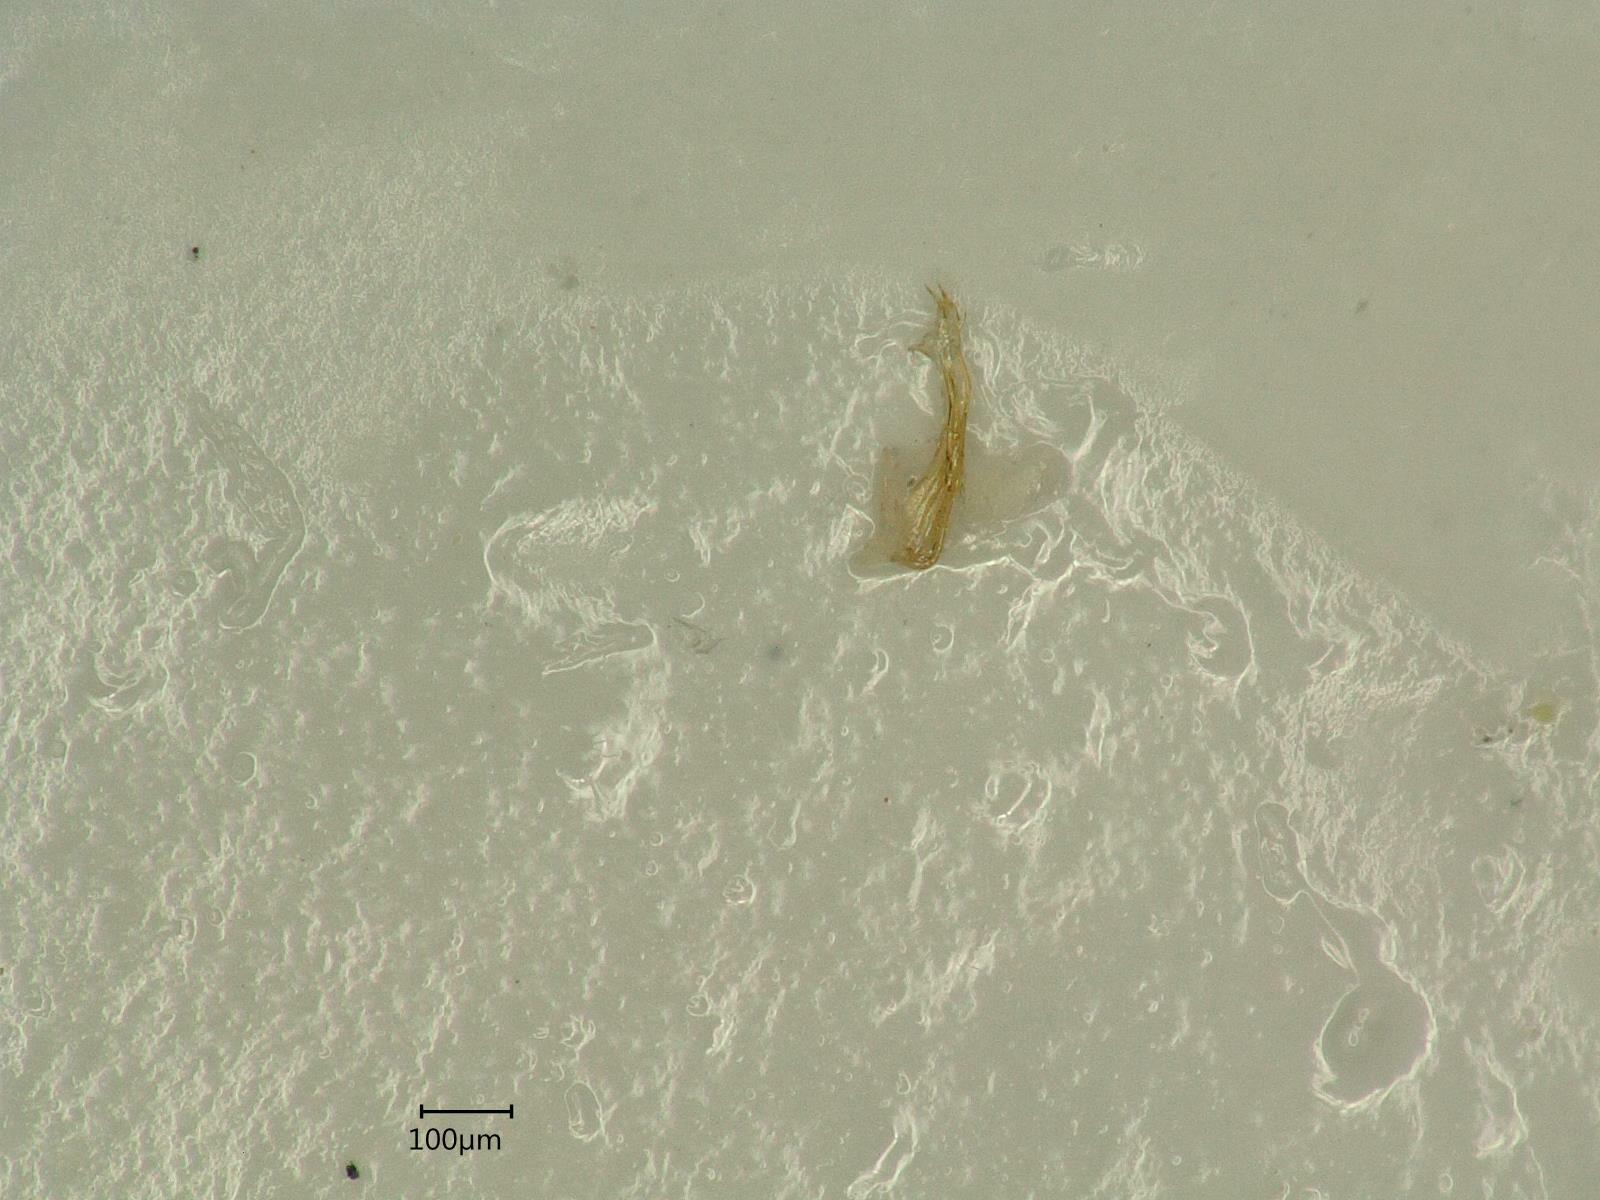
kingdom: Animalia
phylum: Arthropoda
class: Insecta
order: Hemiptera
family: Cicadellidae
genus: Ribautiana
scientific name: Ribautiana tenerrima
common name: Bramble leafhopper
